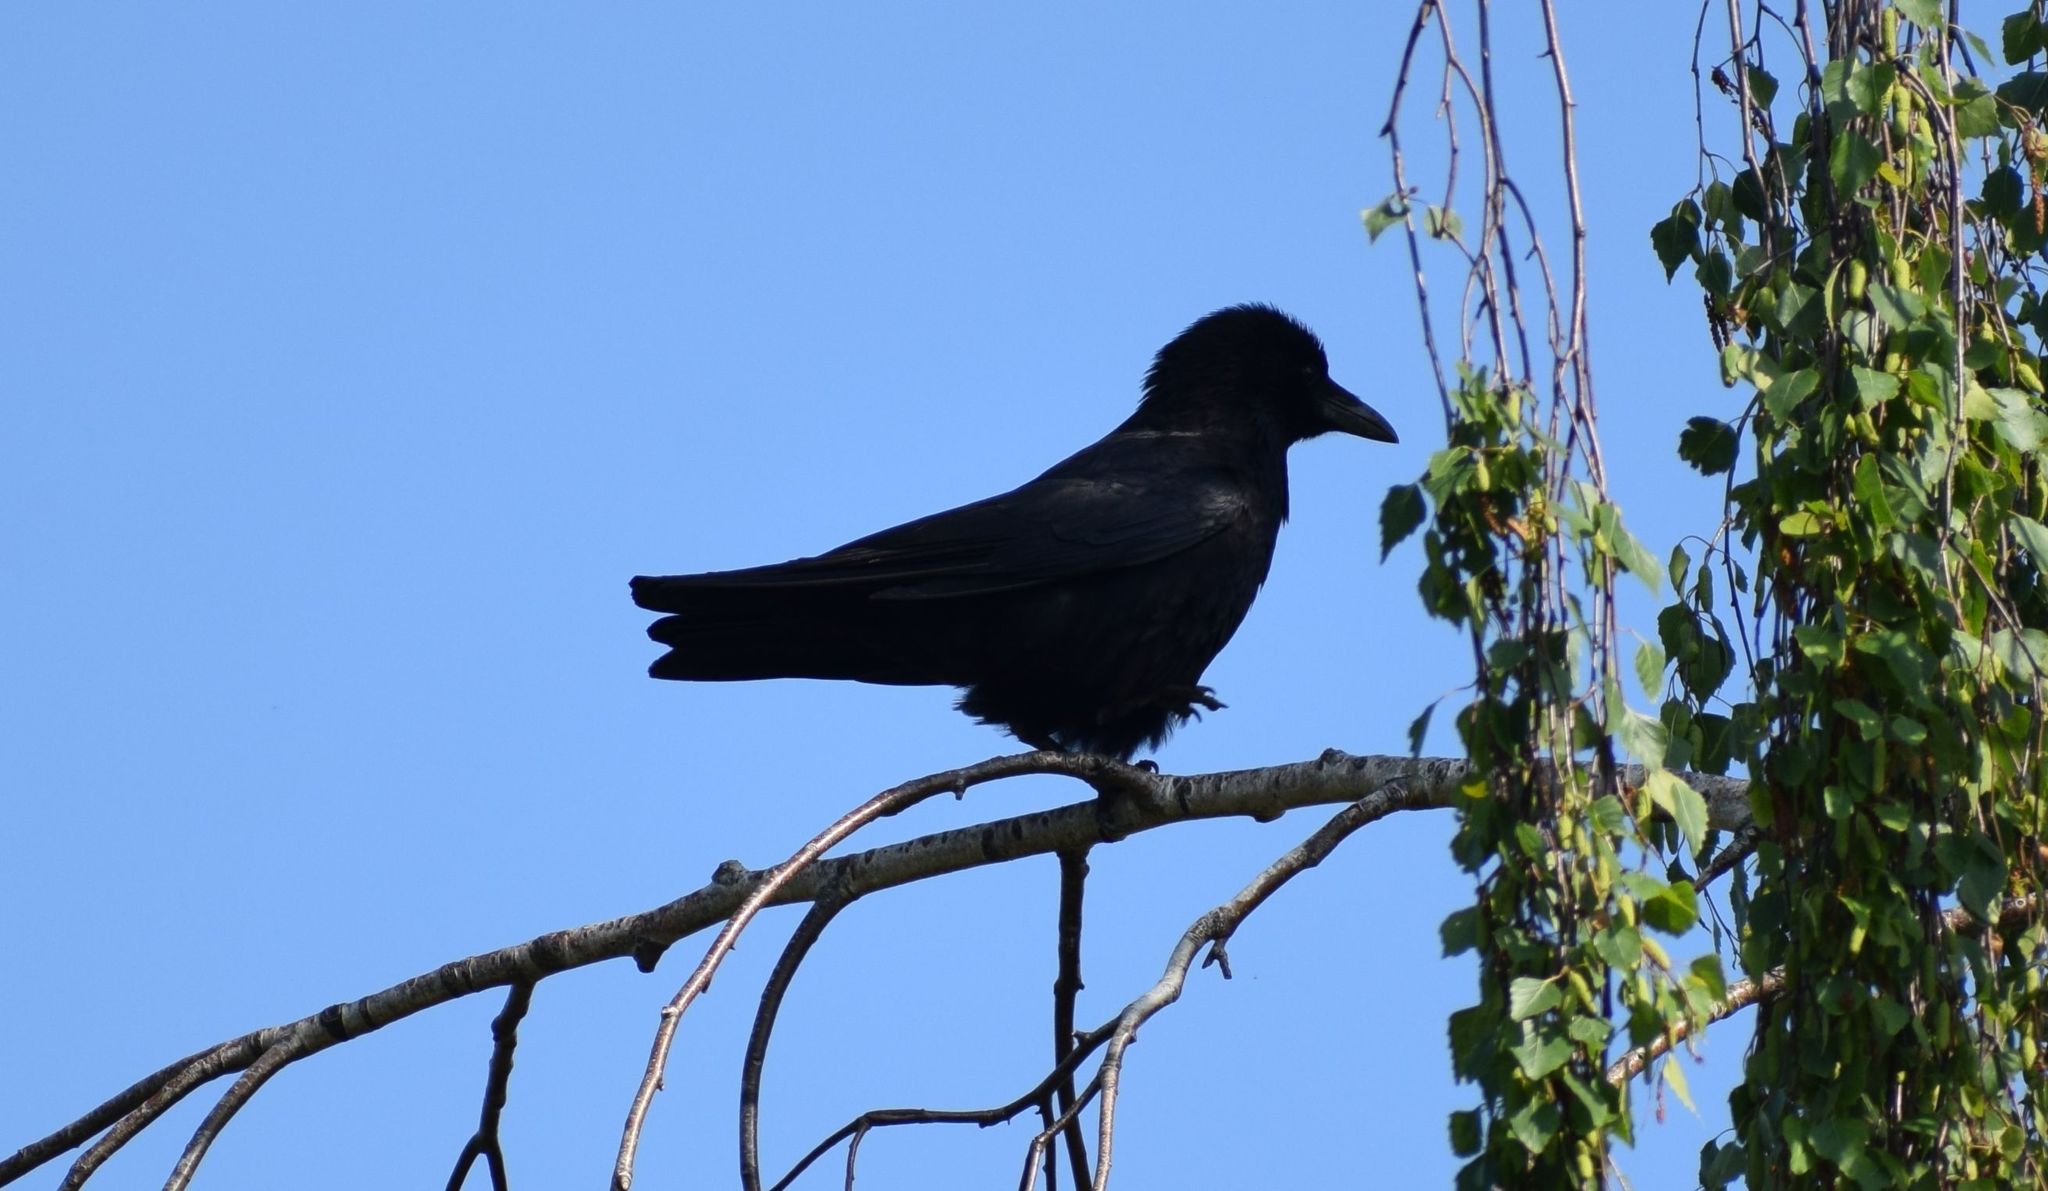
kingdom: Animalia
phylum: Chordata
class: Aves
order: Passeriformes
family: Corvidae
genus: Corvus
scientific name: Corvus corone
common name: Carrion crow
